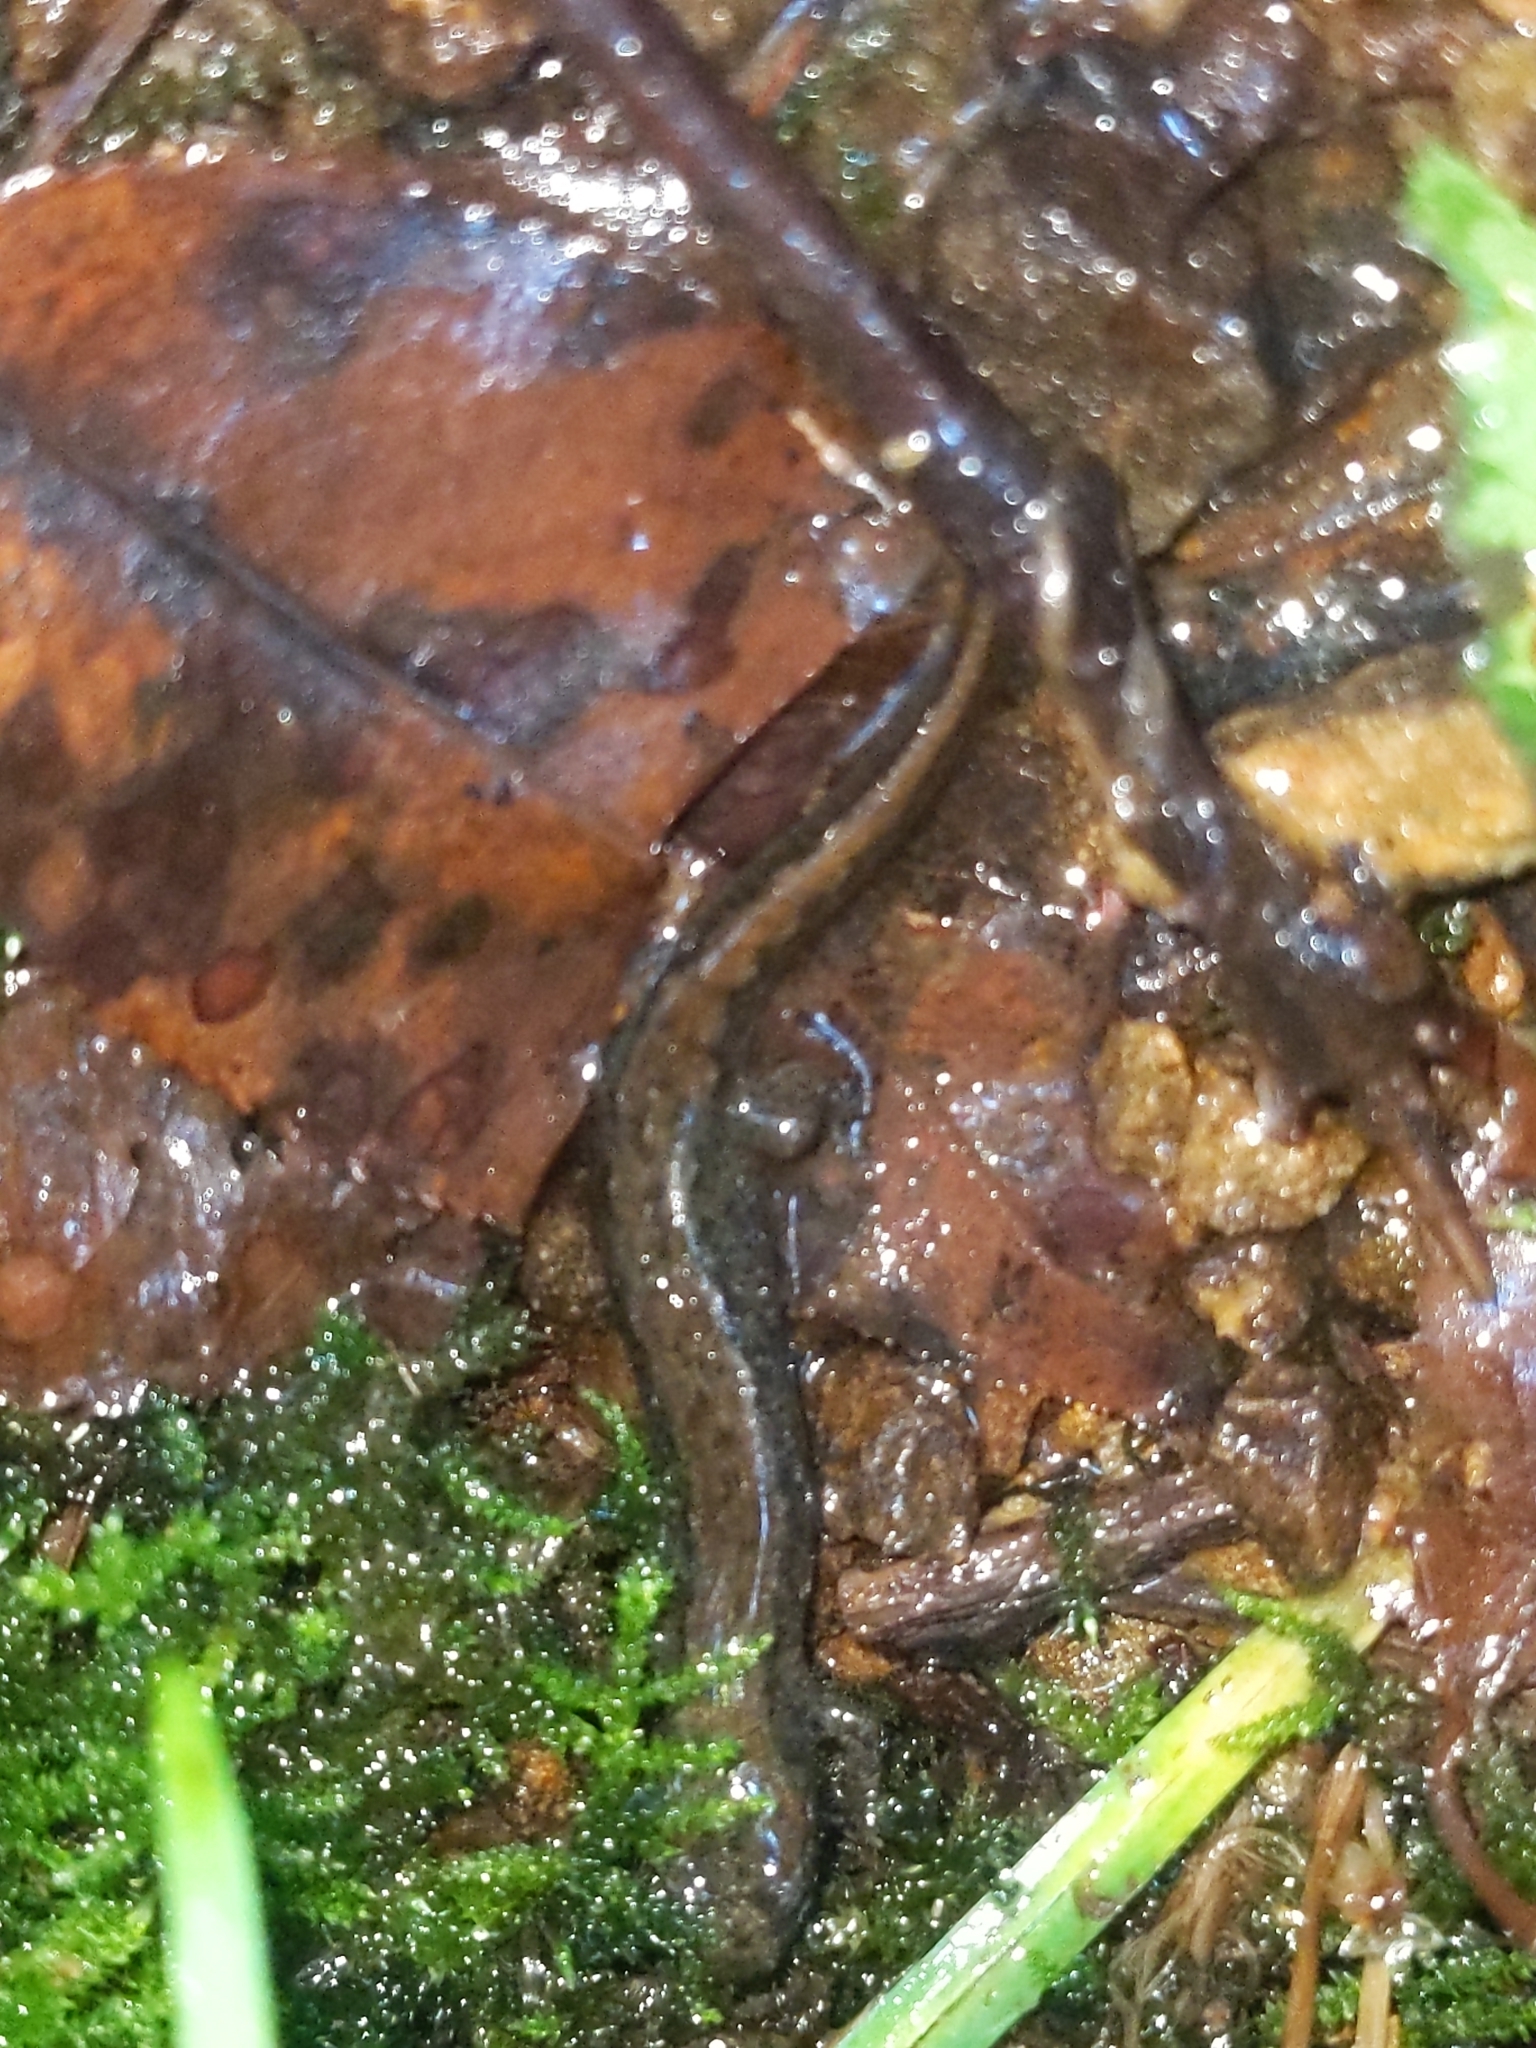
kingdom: Animalia
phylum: Chordata
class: Amphibia
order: Caudata
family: Plethodontidae
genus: Desmognathus
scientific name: Desmognathus fuscus
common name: Northern dusky salamander
